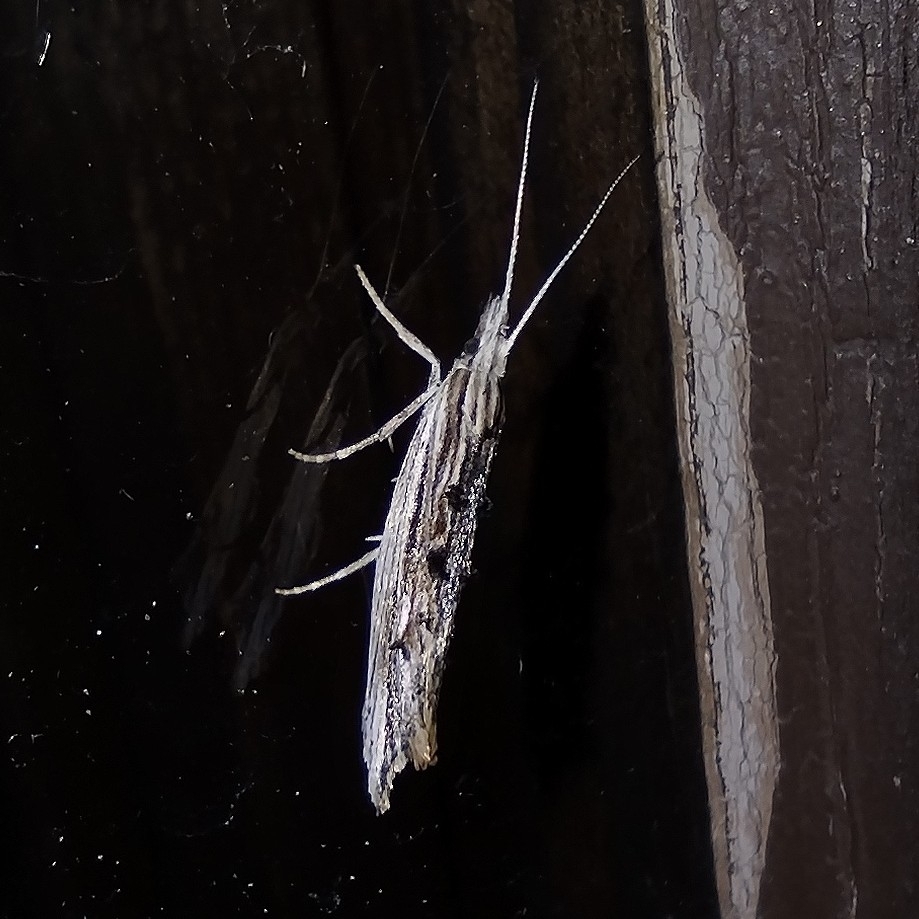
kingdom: Animalia
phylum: Arthropoda
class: Insecta
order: Lepidoptera
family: Ypsolophidae
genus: Ypsolopha
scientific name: Ypsolopha scabrella
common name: Wainscot smudge
